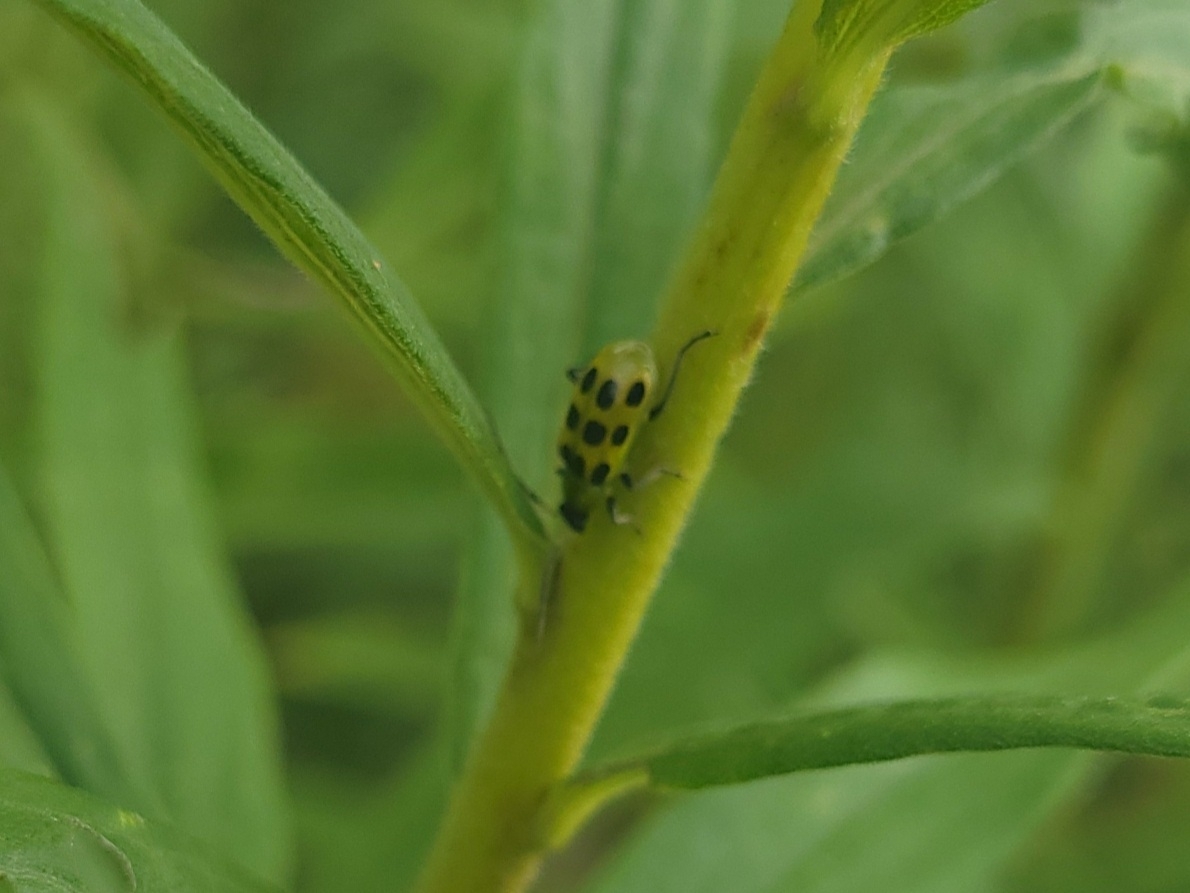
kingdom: Animalia
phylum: Arthropoda
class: Insecta
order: Coleoptera
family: Chrysomelidae
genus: Diabrotica
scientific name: Diabrotica undecimpunctata
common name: Spotted cucumber beetle
